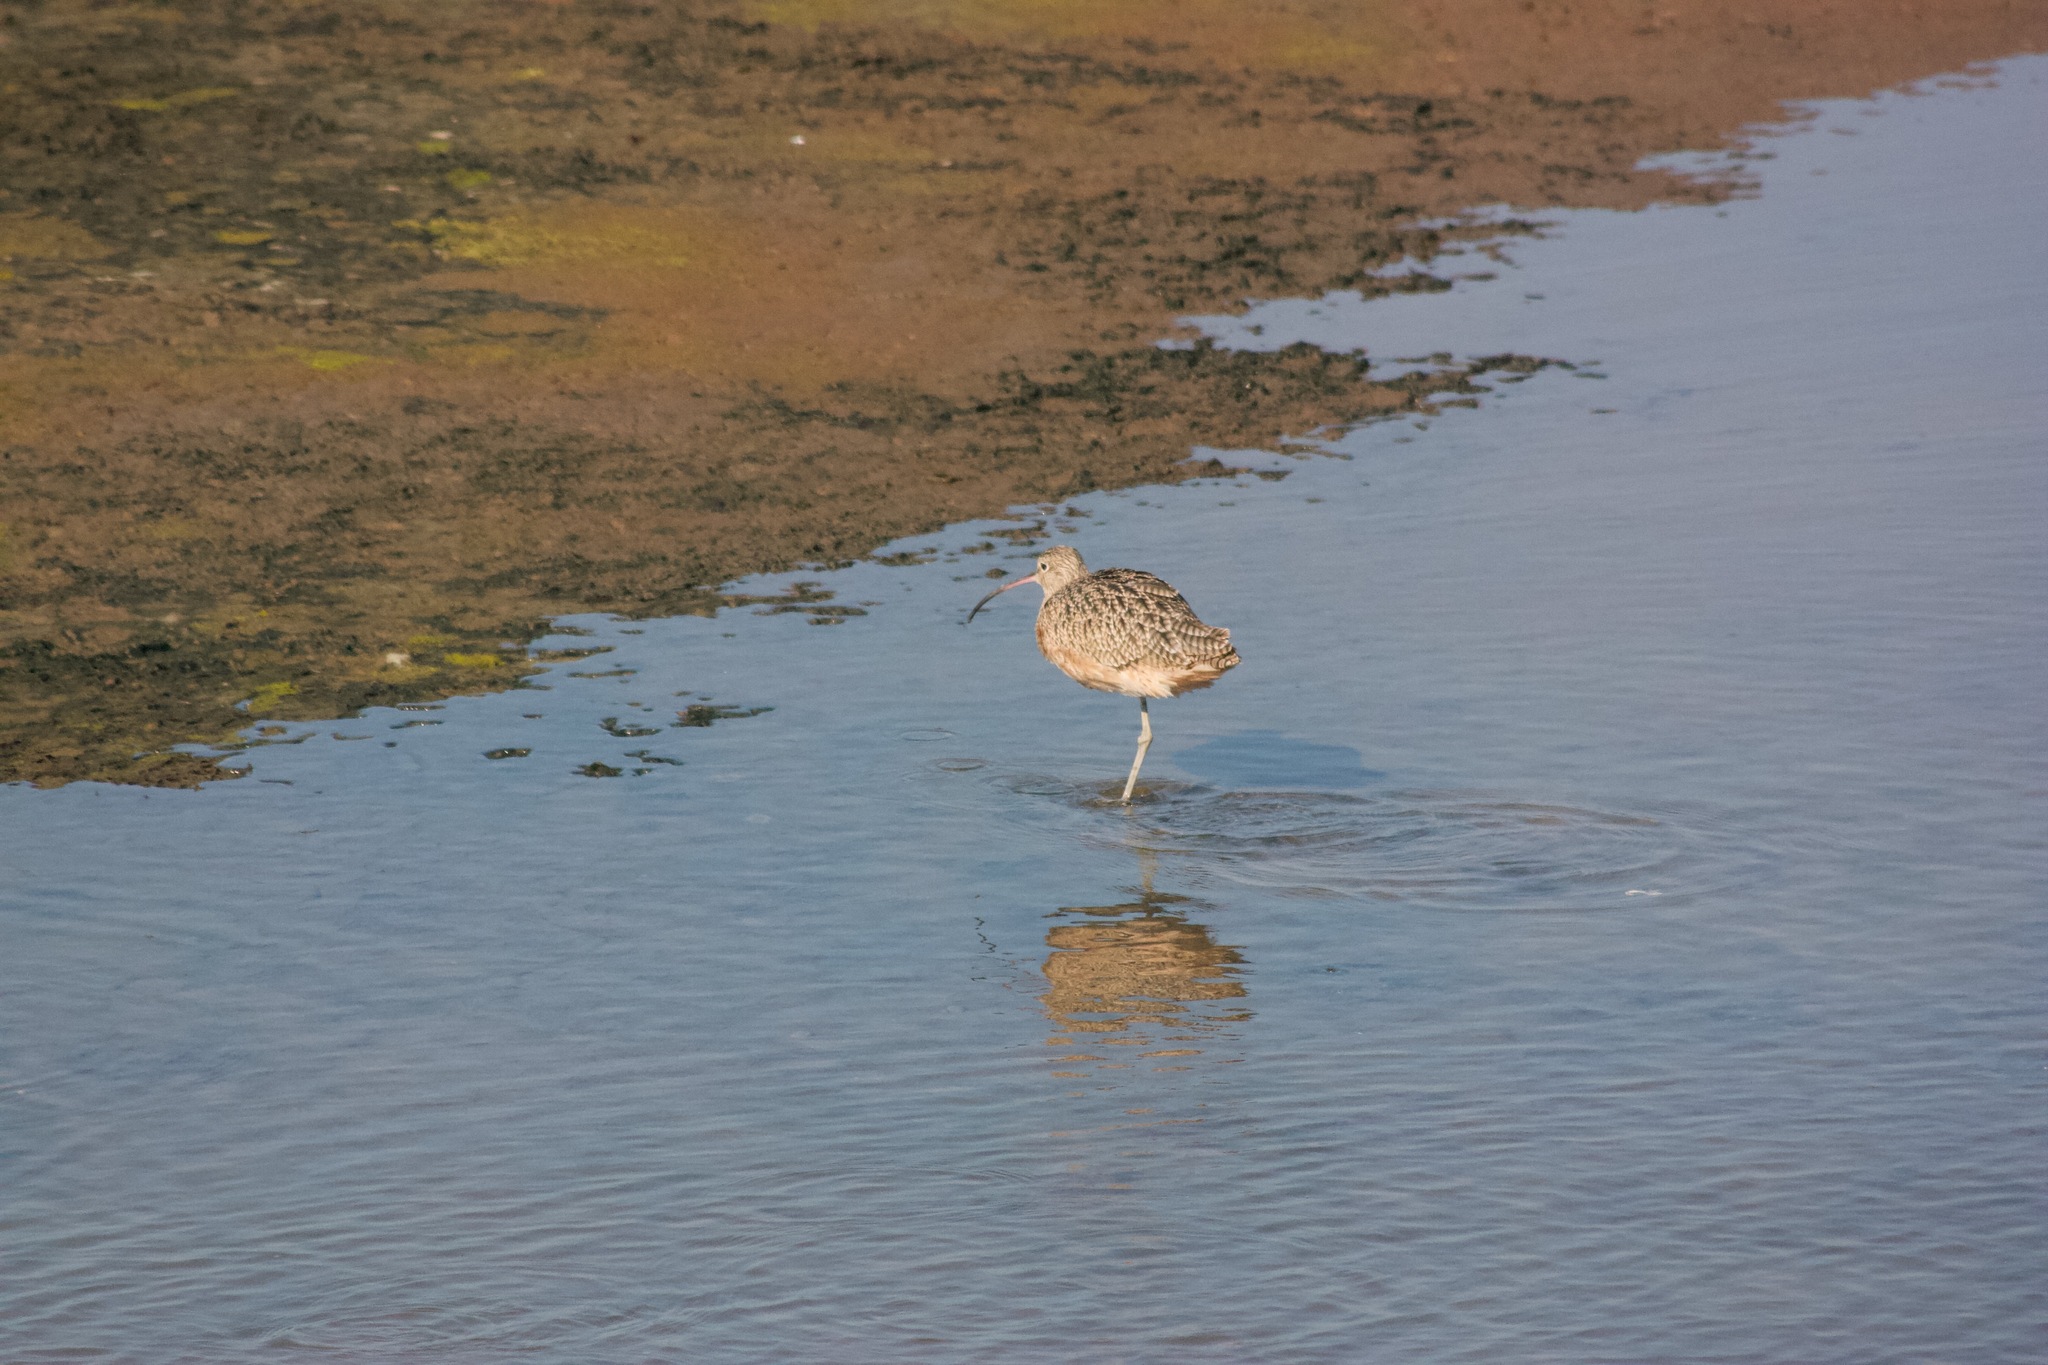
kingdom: Animalia
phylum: Chordata
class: Aves
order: Charadriiformes
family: Scolopacidae
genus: Numenius
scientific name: Numenius americanus
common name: Long-billed curlew
